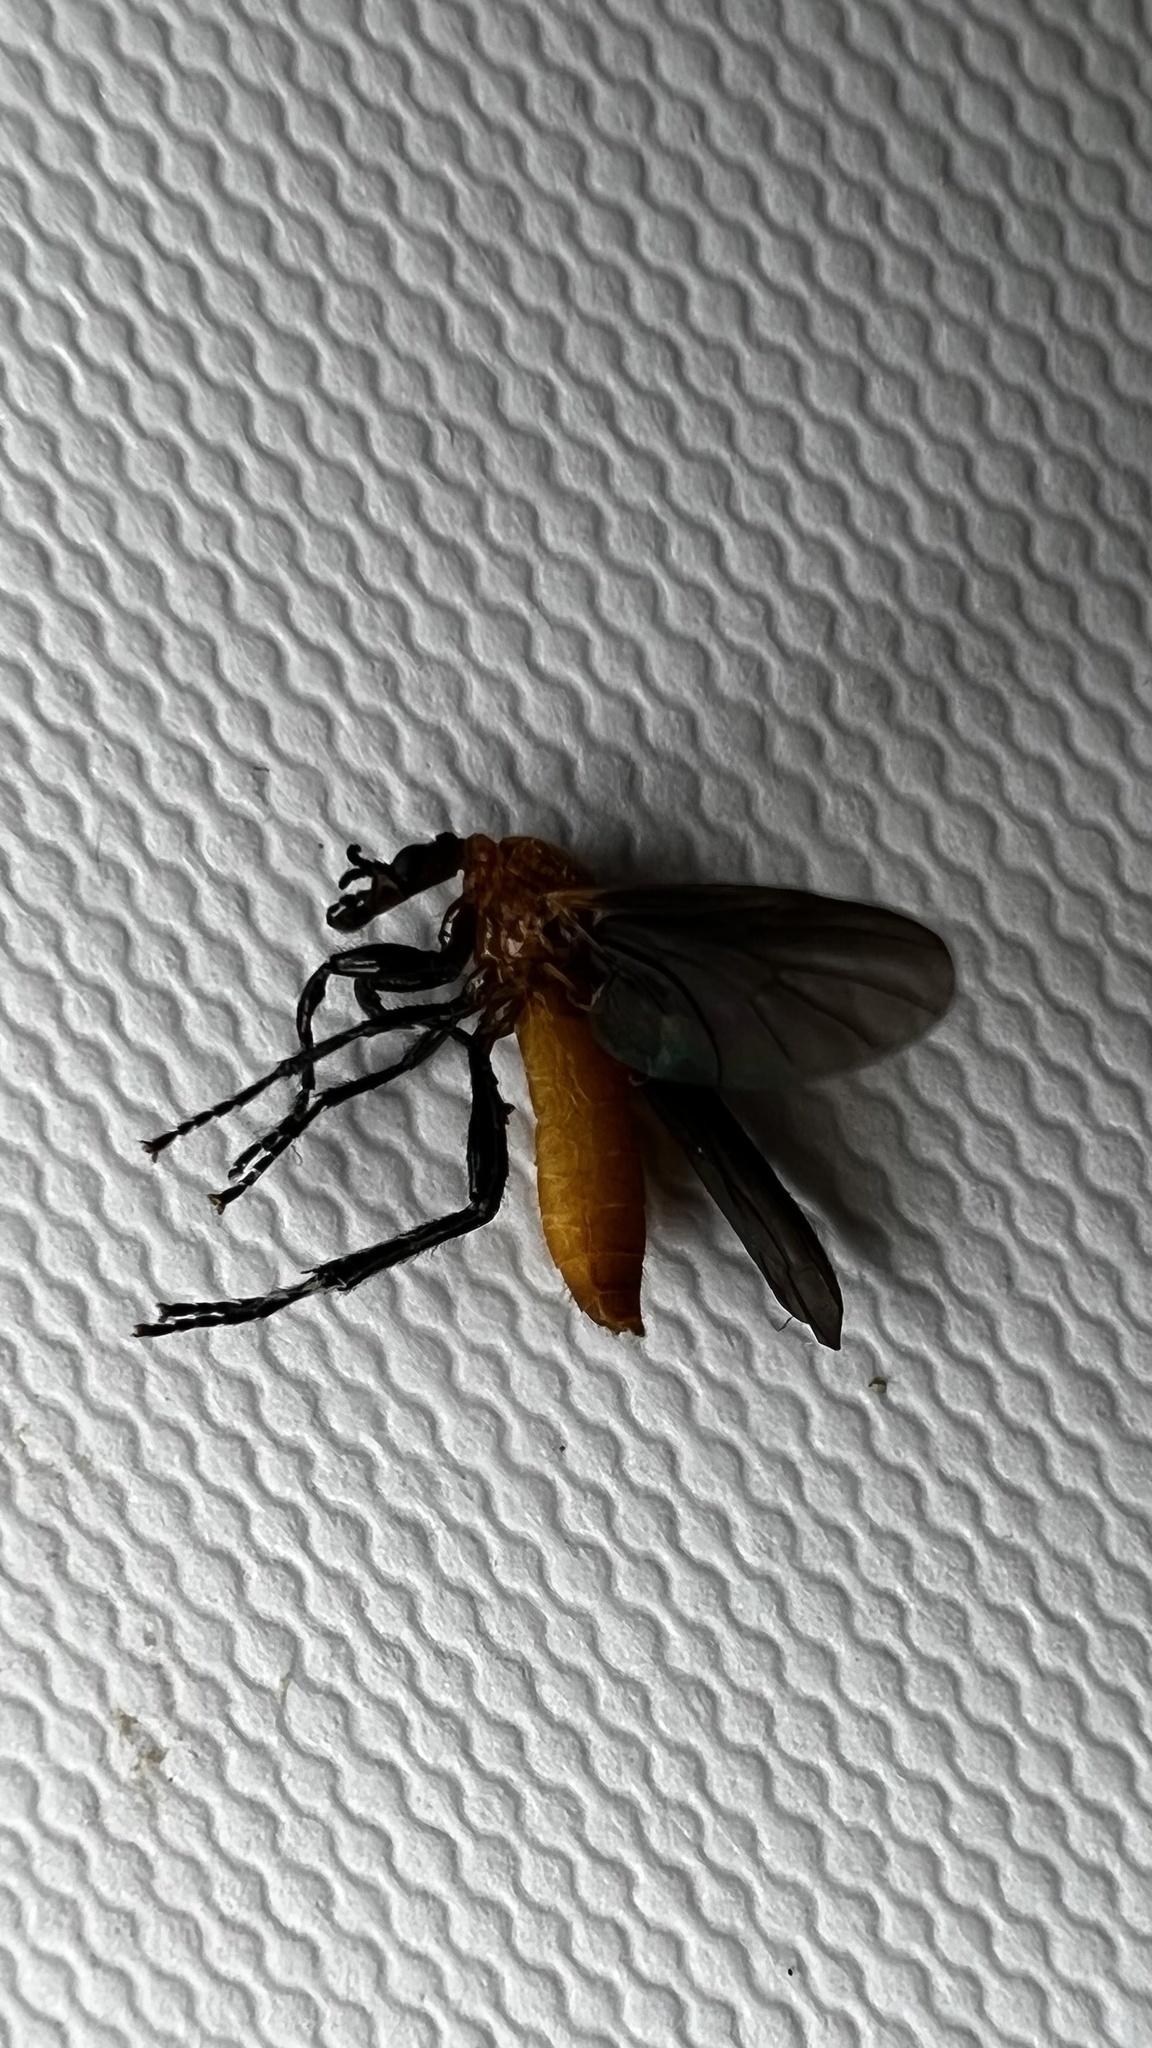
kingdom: Animalia
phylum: Arthropoda
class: Insecta
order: Diptera
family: Bibionidae
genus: Bibio
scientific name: Bibio imitator
